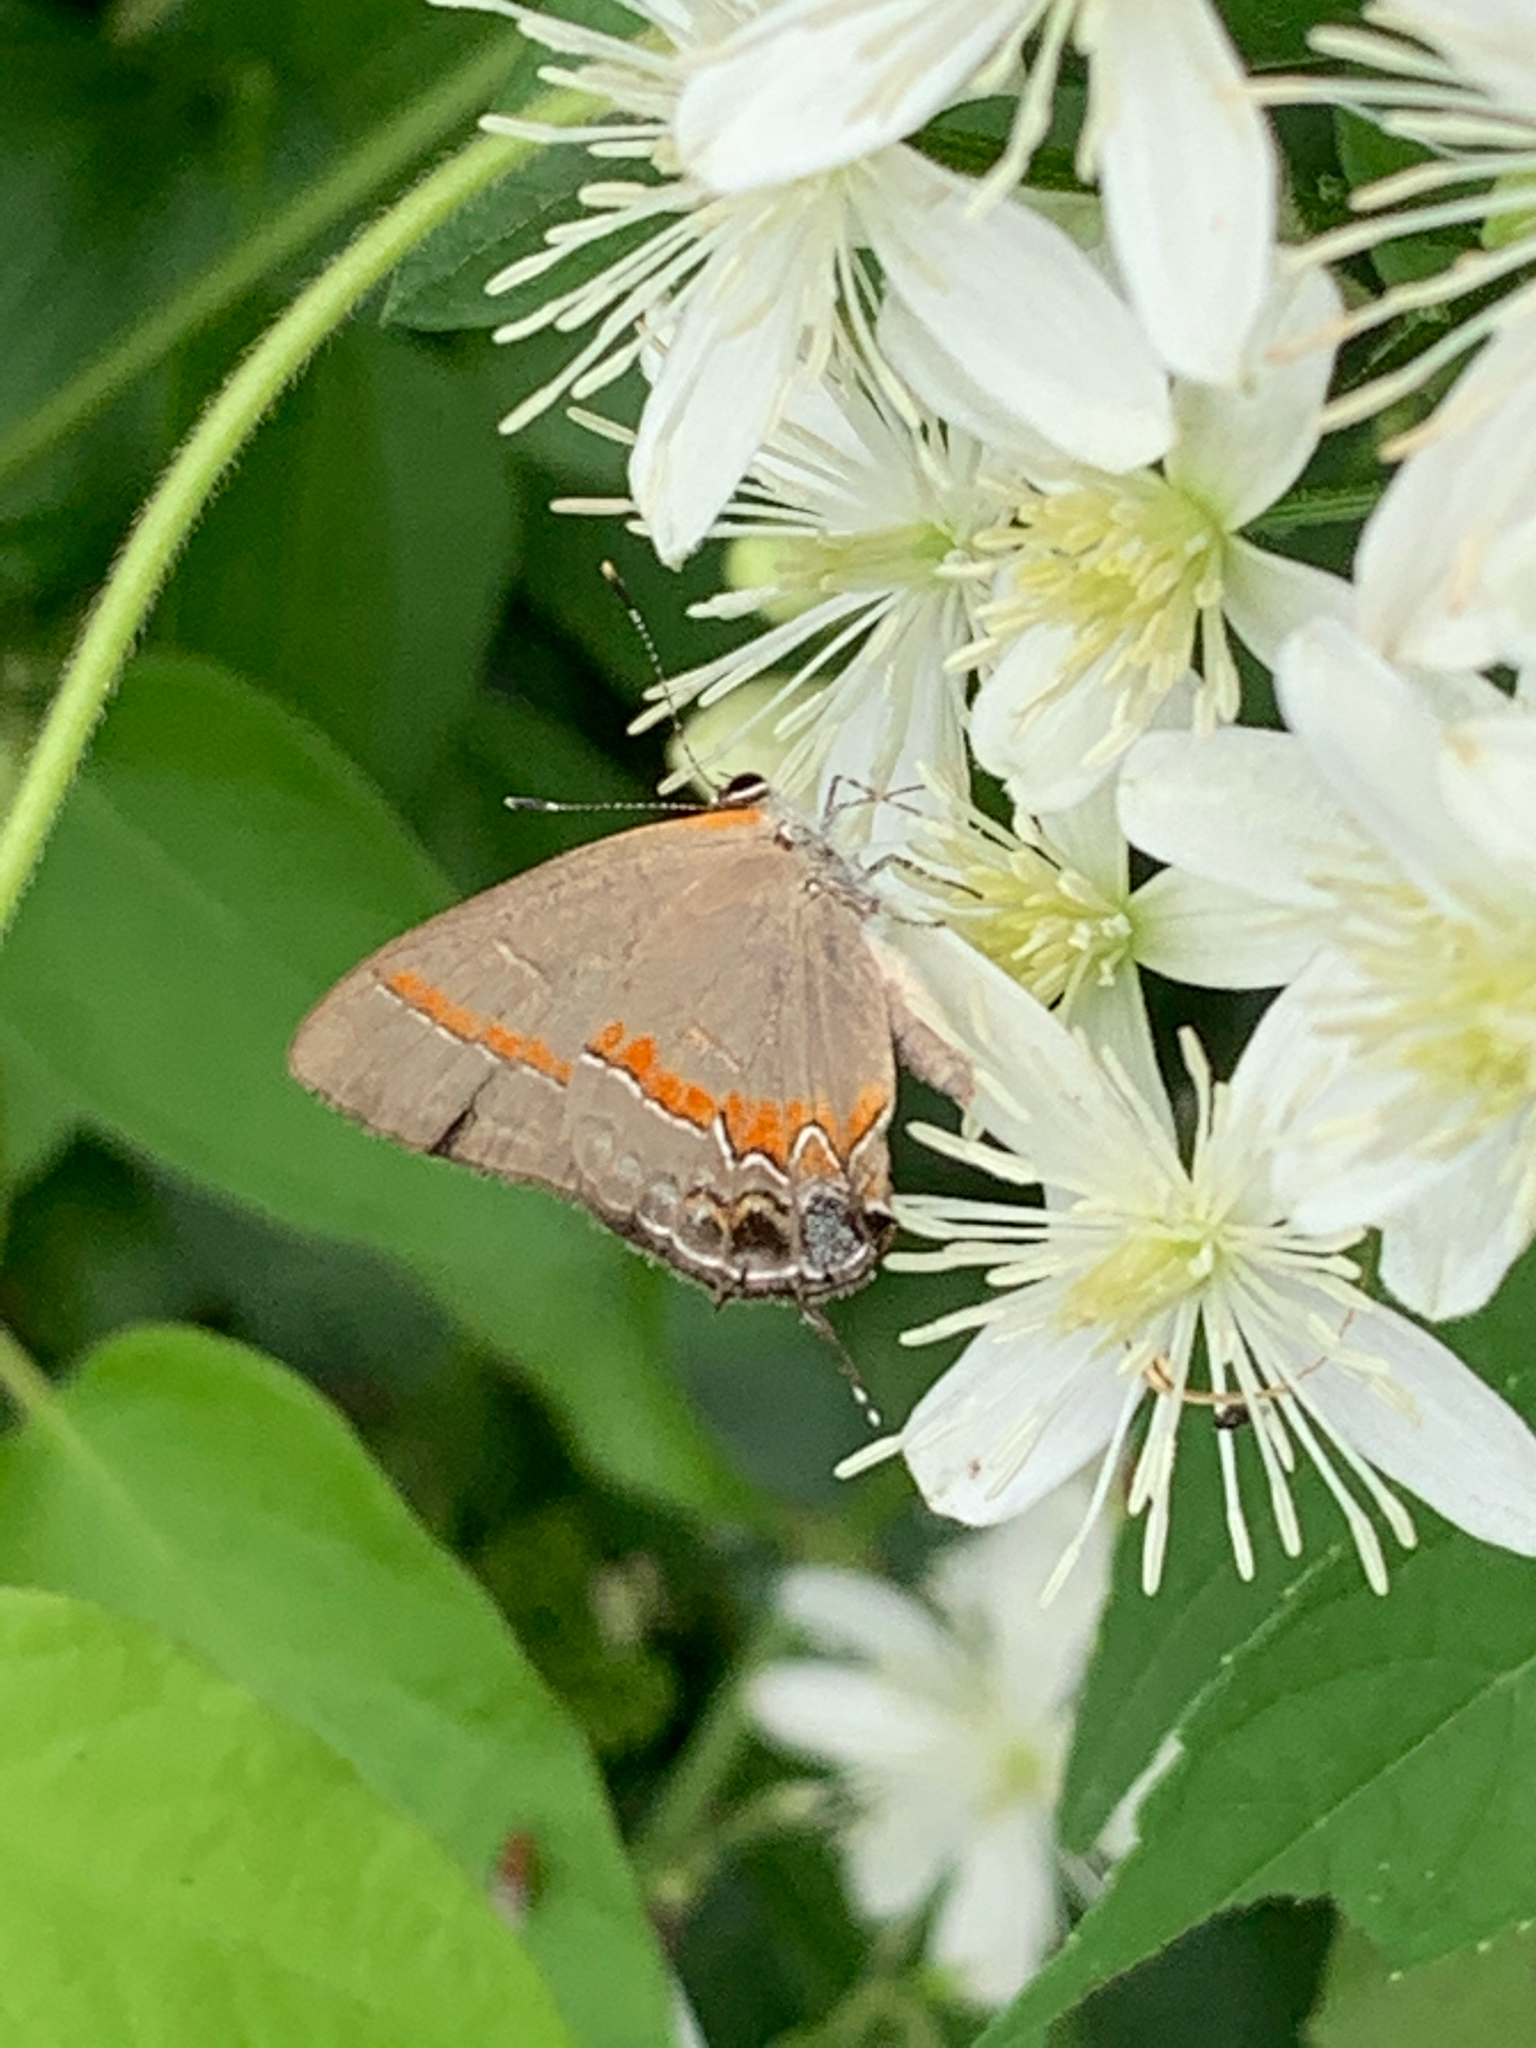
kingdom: Animalia
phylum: Arthropoda
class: Insecta
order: Lepidoptera
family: Lycaenidae
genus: Calycopis
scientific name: Calycopis cecrops
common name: Red-banded hairstreak
